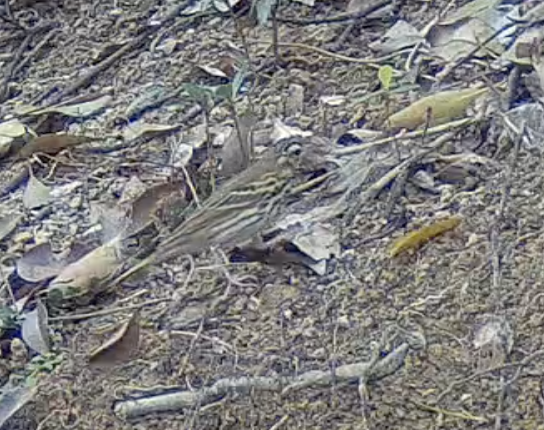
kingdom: Animalia
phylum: Chordata
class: Aves
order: Passeriformes
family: Motacillidae
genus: Anthus
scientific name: Anthus hodgsoni
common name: Olive-backed pipit
